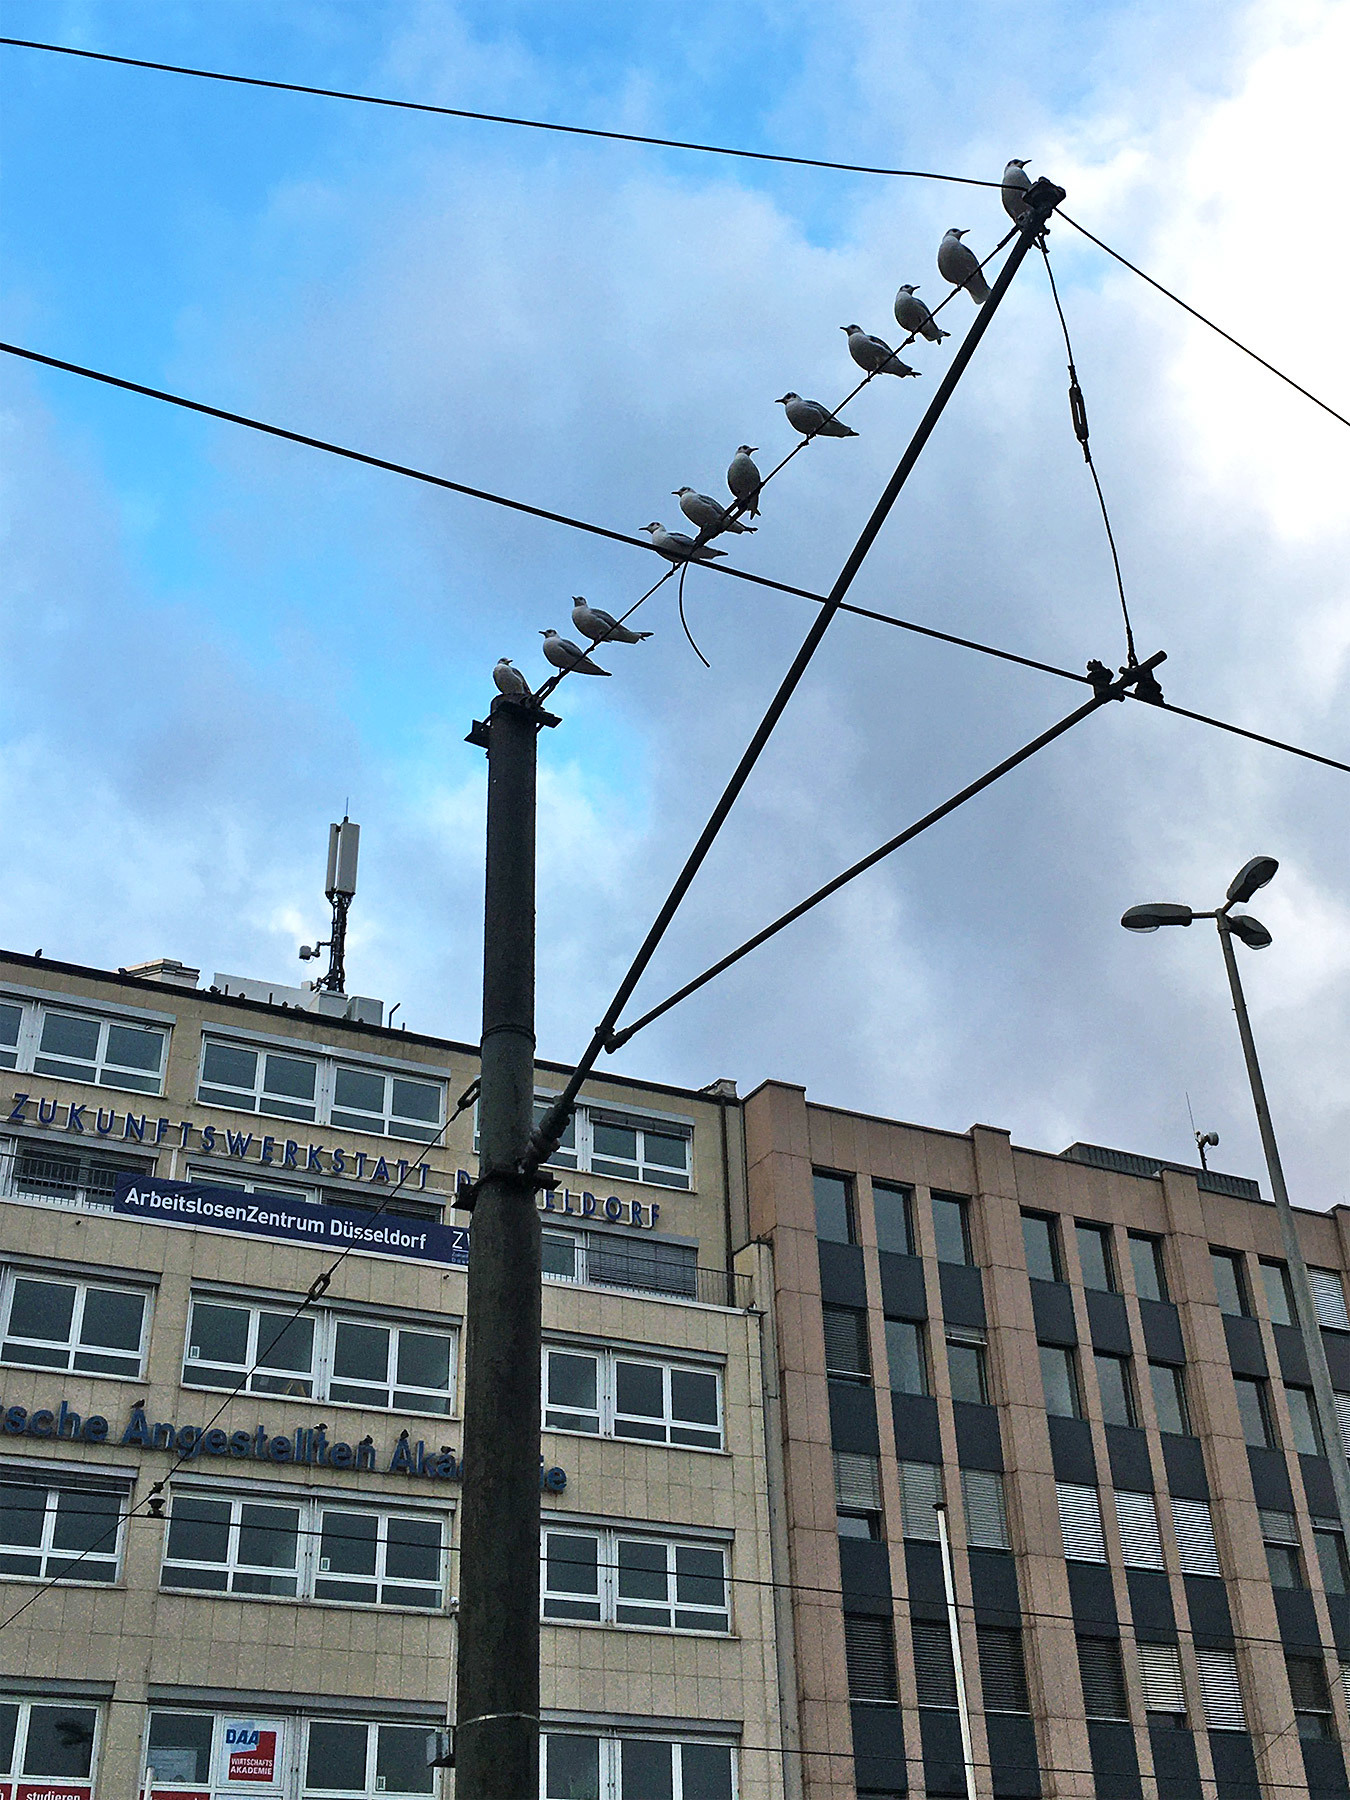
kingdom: Animalia
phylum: Chordata
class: Aves
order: Charadriiformes
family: Laridae
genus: Chroicocephalus
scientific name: Chroicocephalus ridibundus
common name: Black-headed gull
